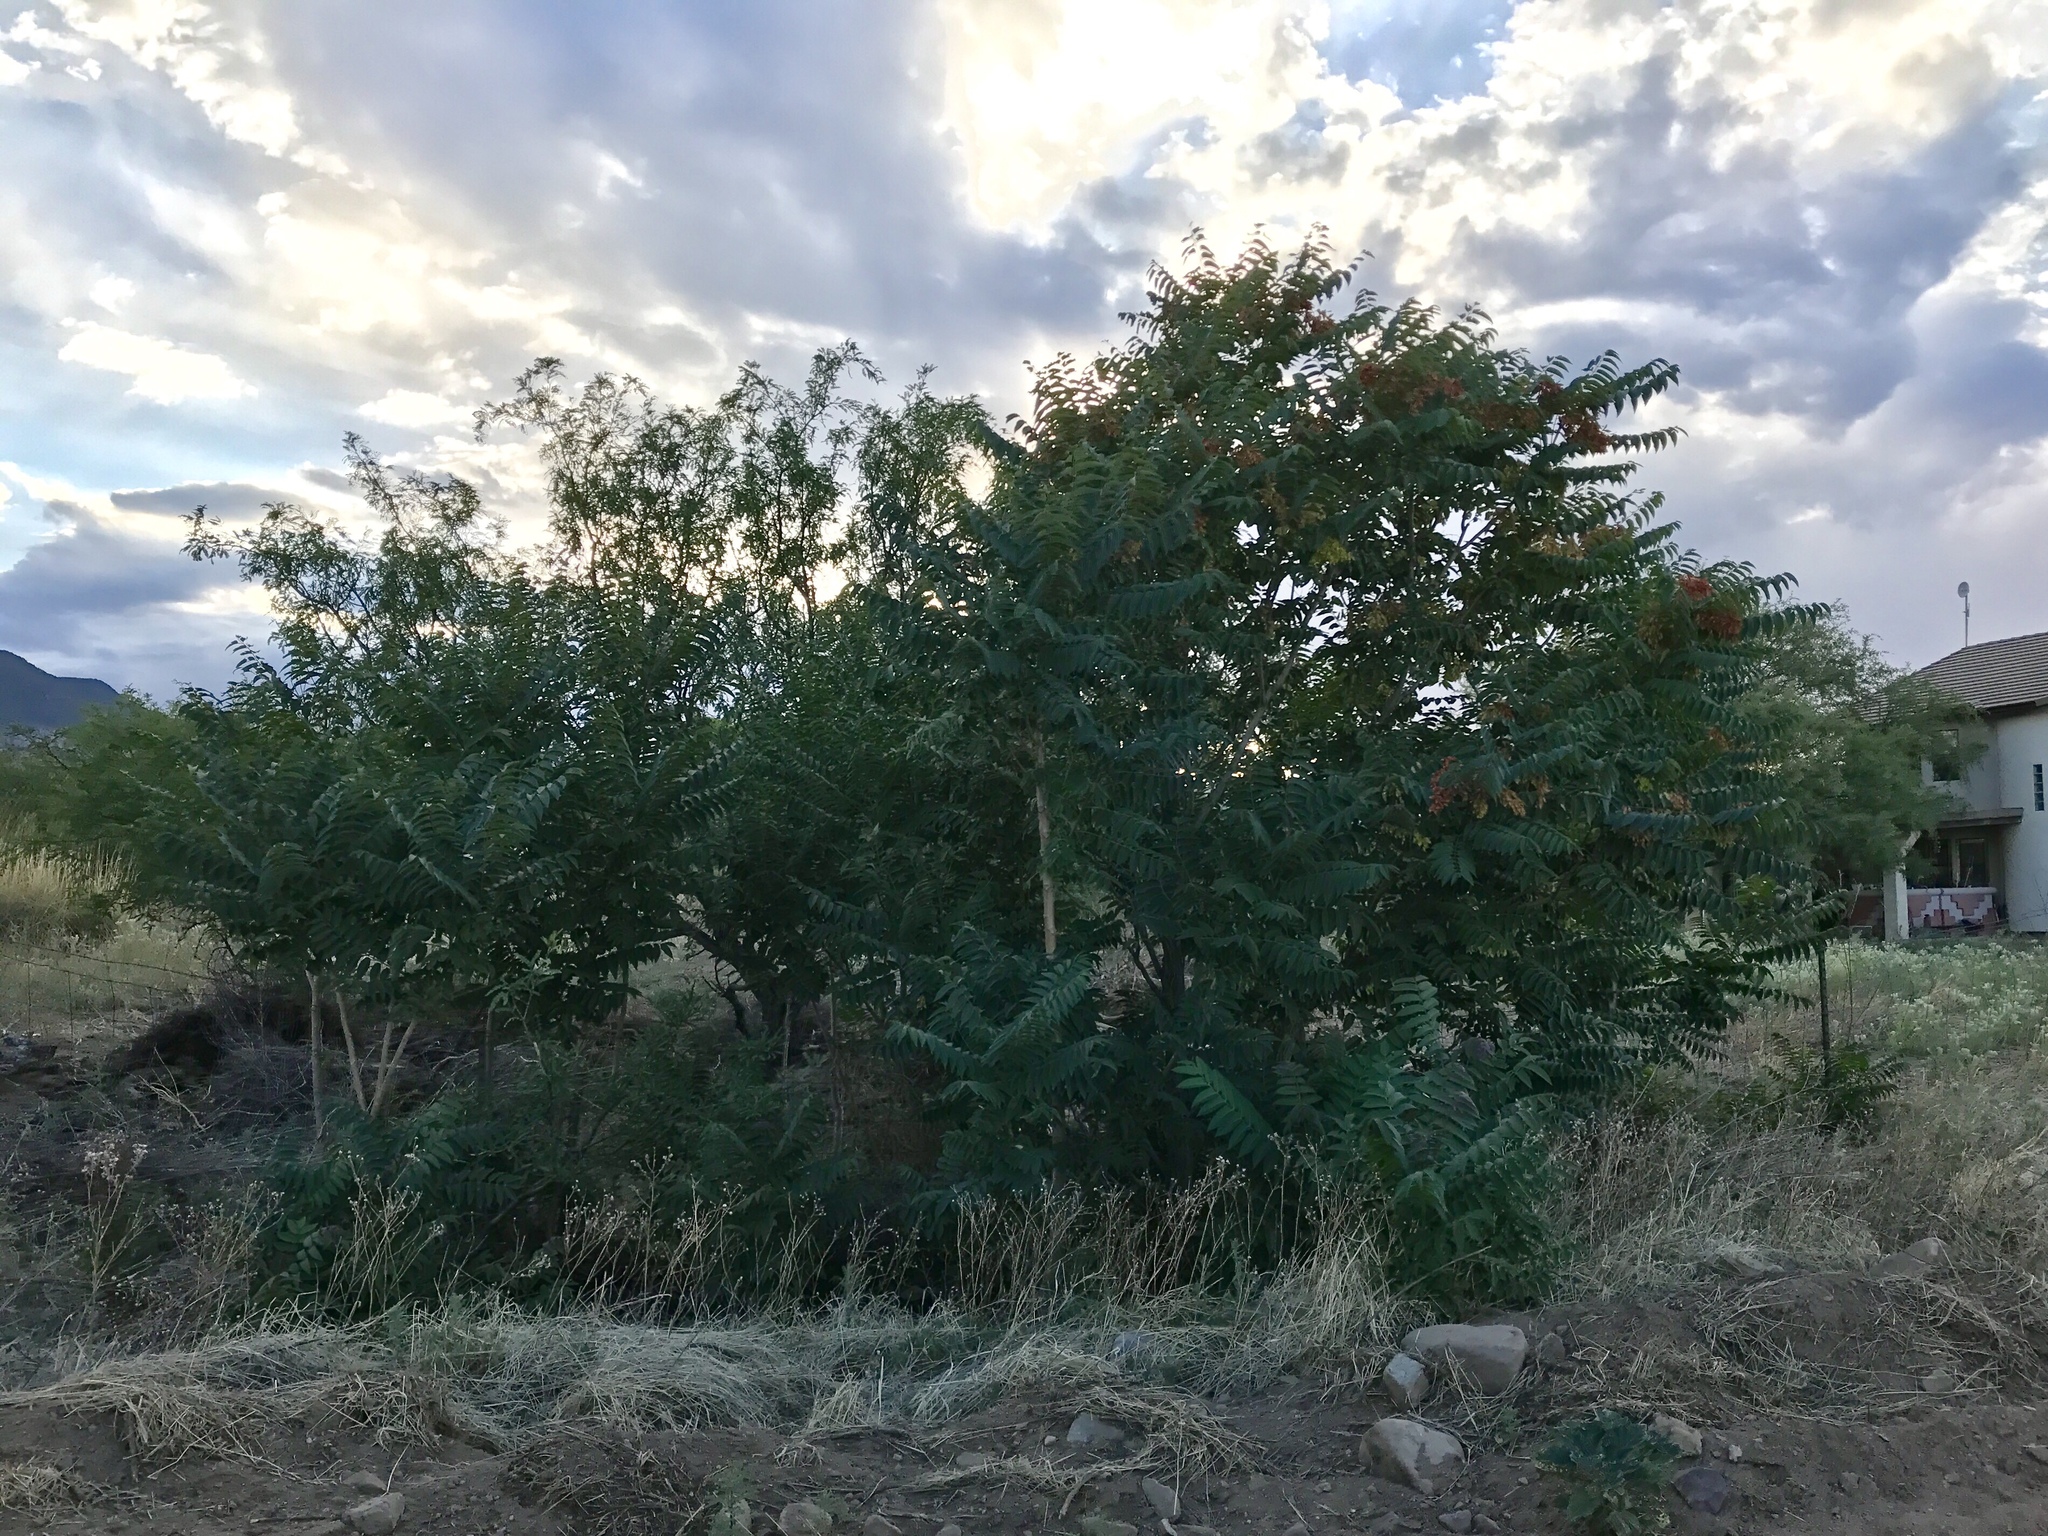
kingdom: Plantae
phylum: Tracheophyta
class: Magnoliopsida
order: Fagales
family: Juglandaceae
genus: Juglans
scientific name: Juglans major
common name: Arizona walnut
